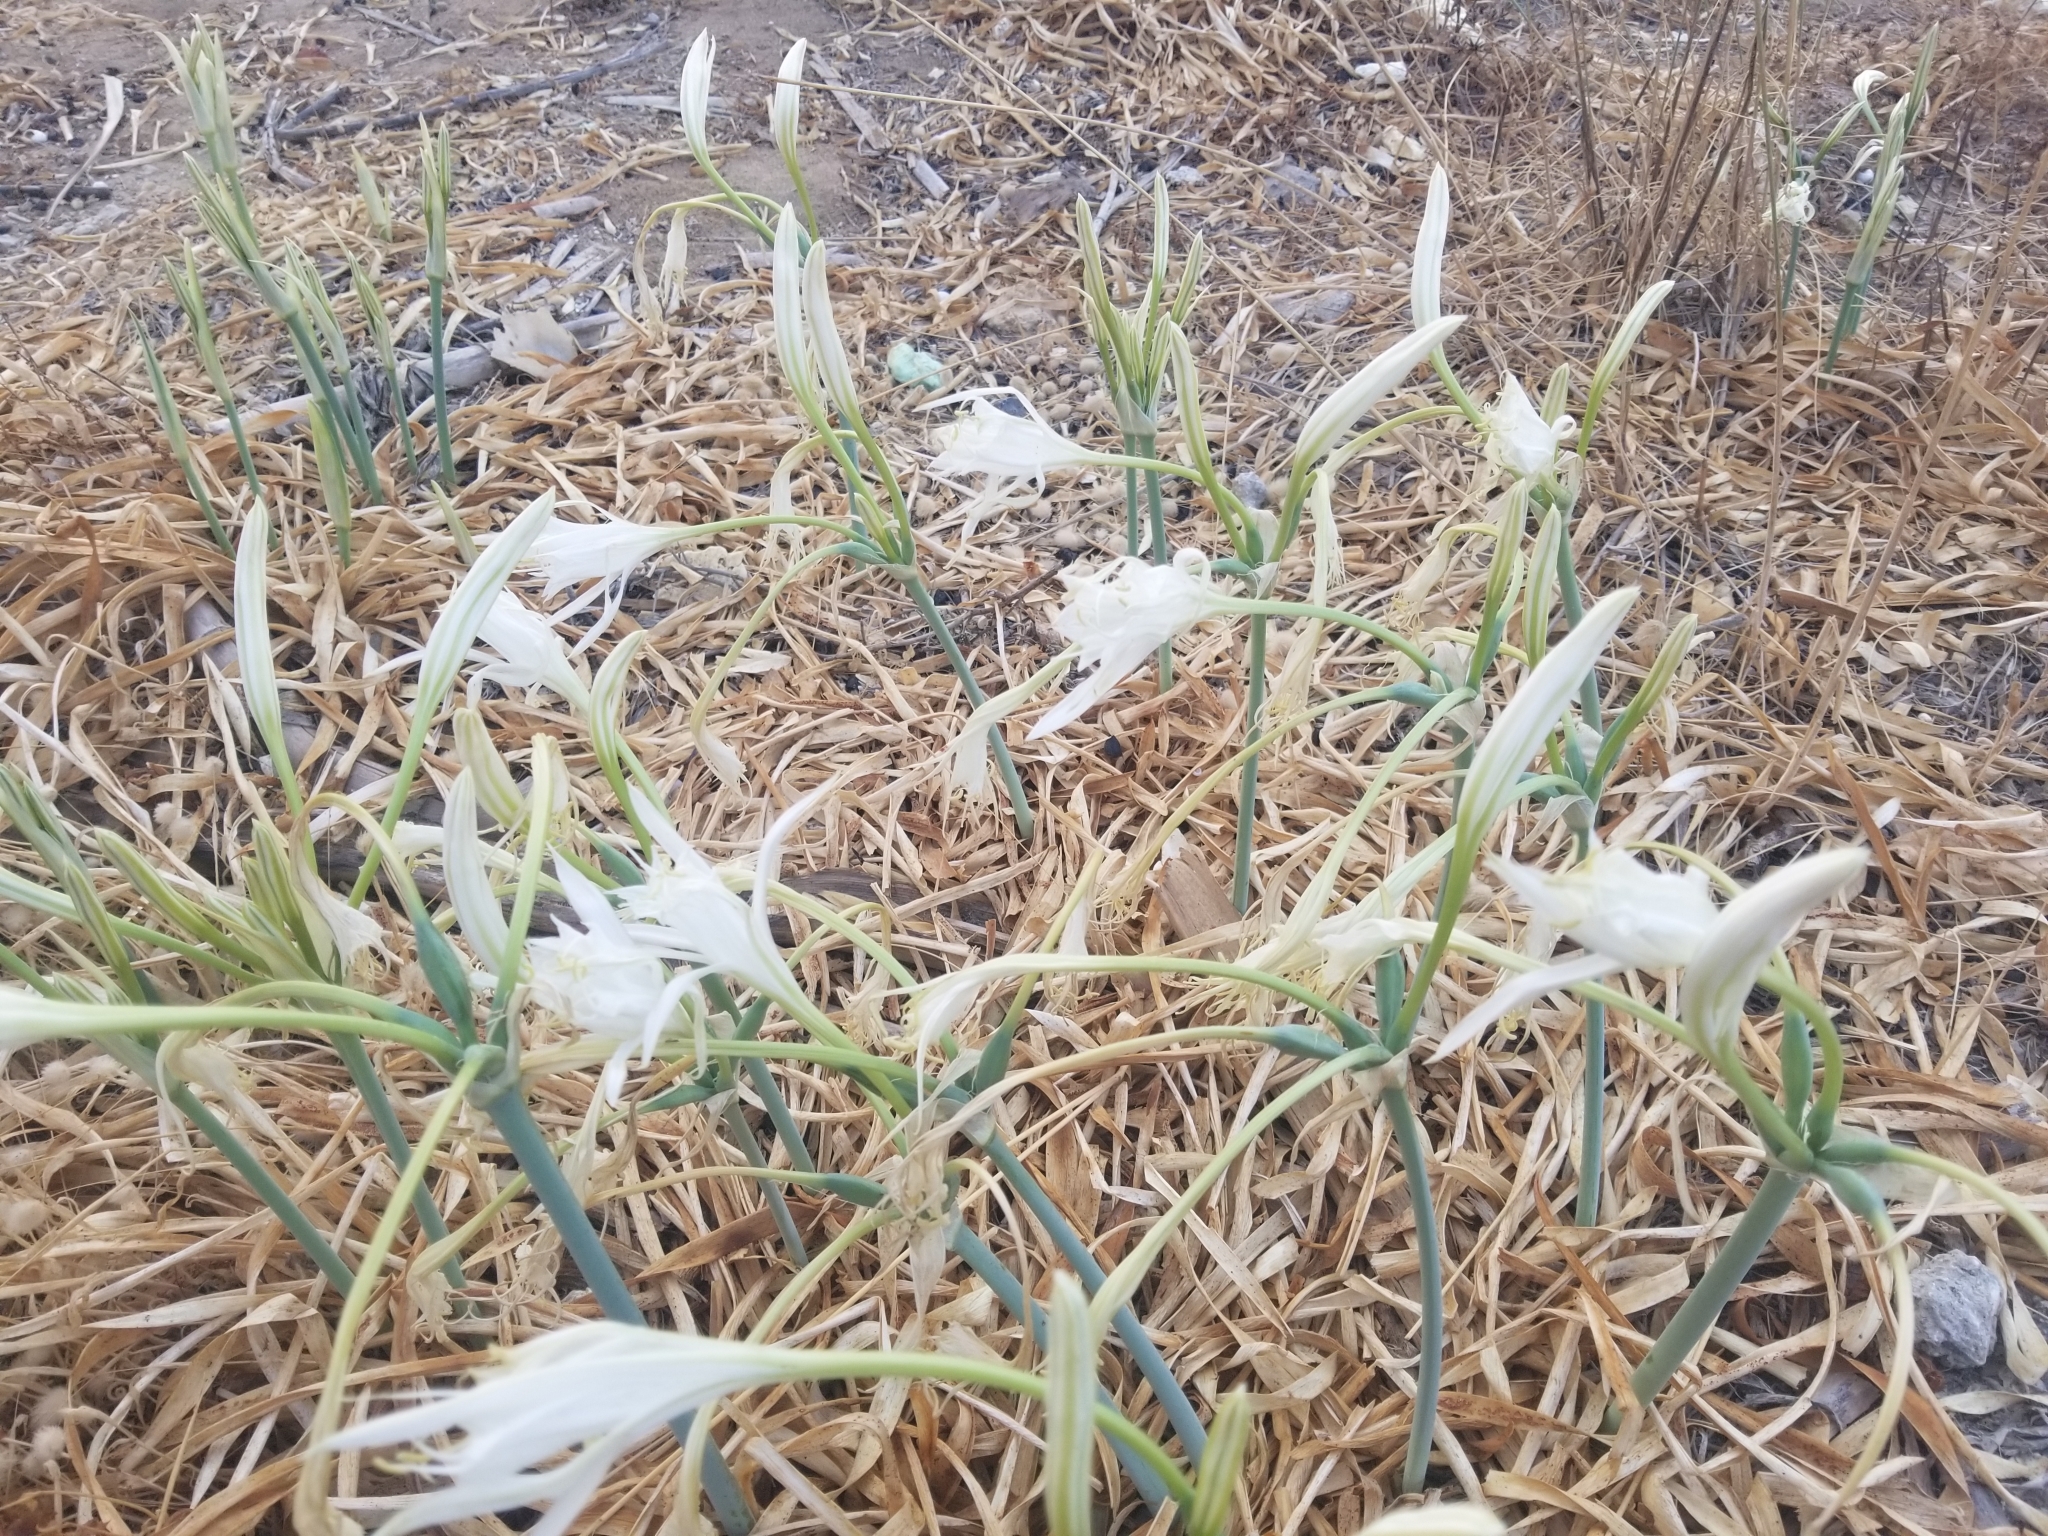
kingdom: Plantae
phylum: Tracheophyta
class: Liliopsida
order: Asparagales
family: Amaryllidaceae
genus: Pancratium
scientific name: Pancratium maritimum
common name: Sea-daffodil
